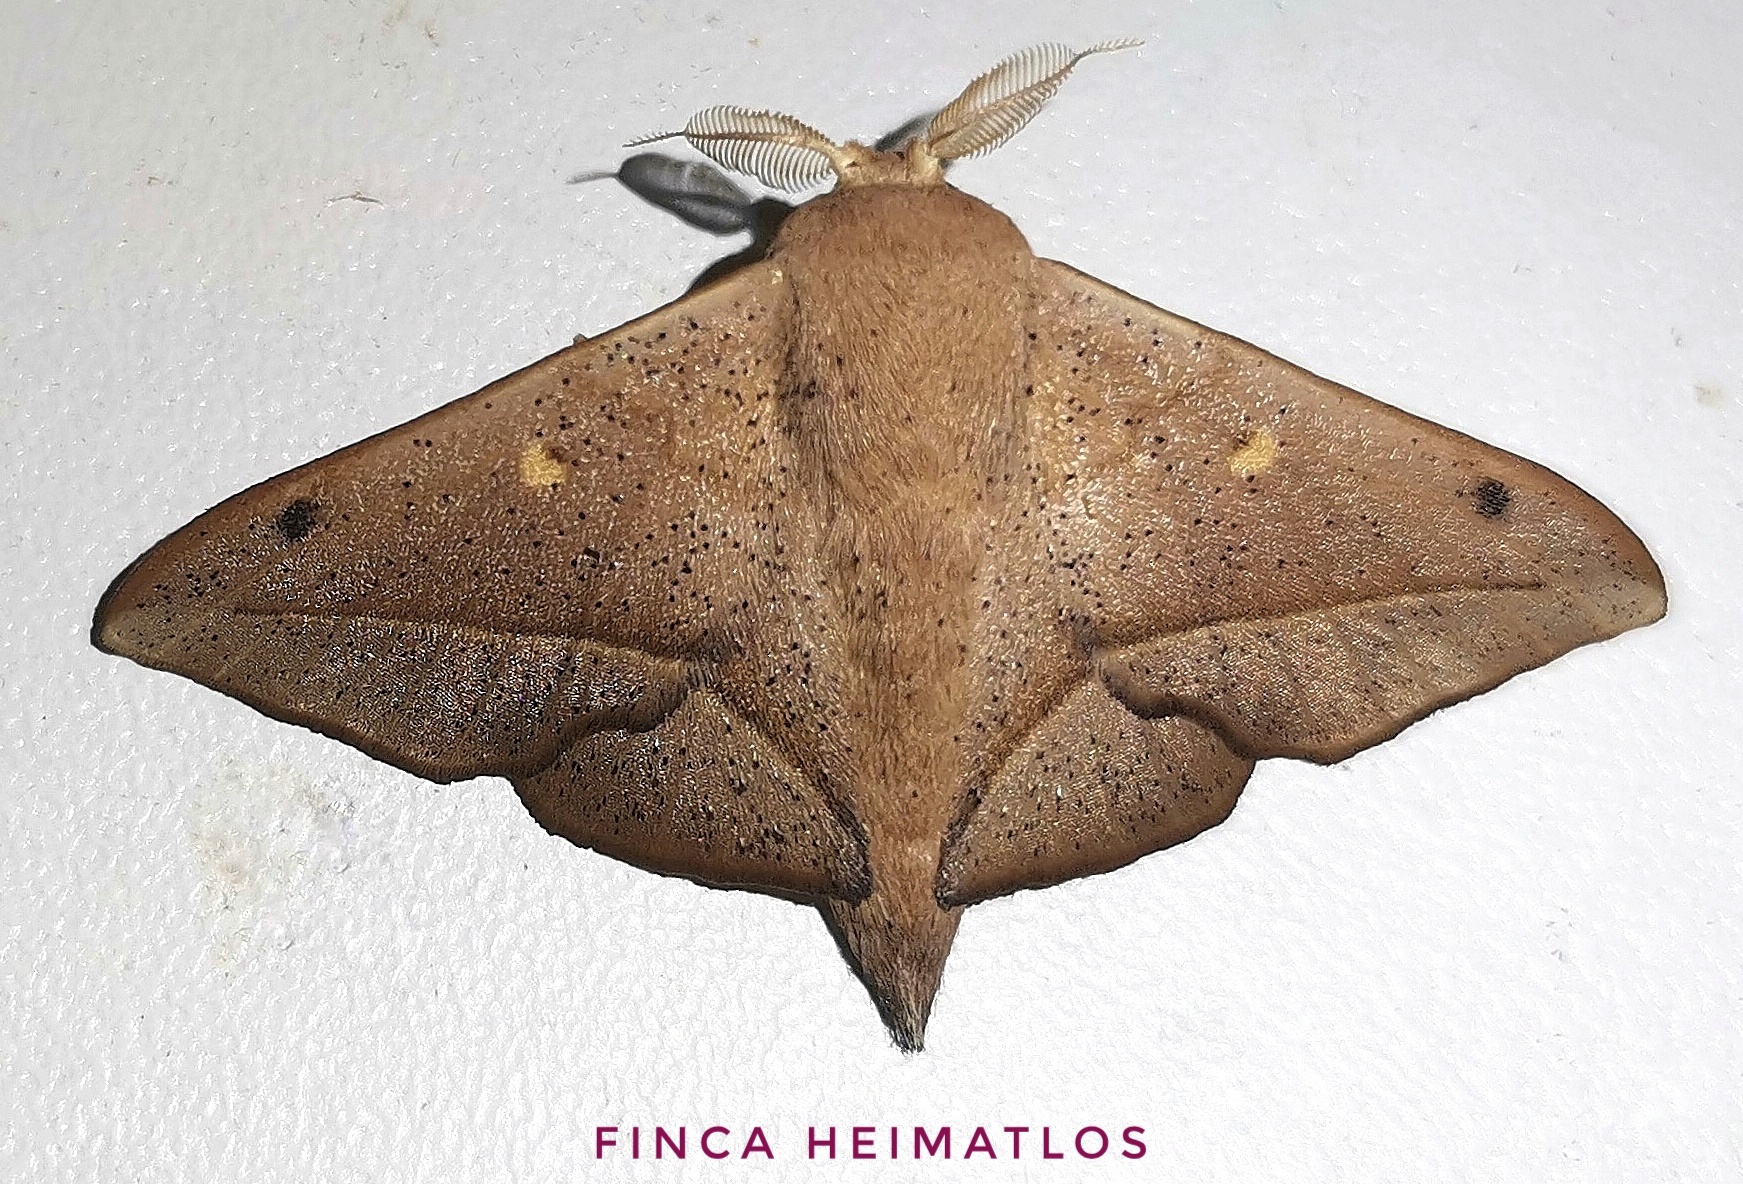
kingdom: Animalia
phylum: Arthropoda
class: Insecta
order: Lepidoptera
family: Mimallonidae
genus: Druentica
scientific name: Druentica partha
